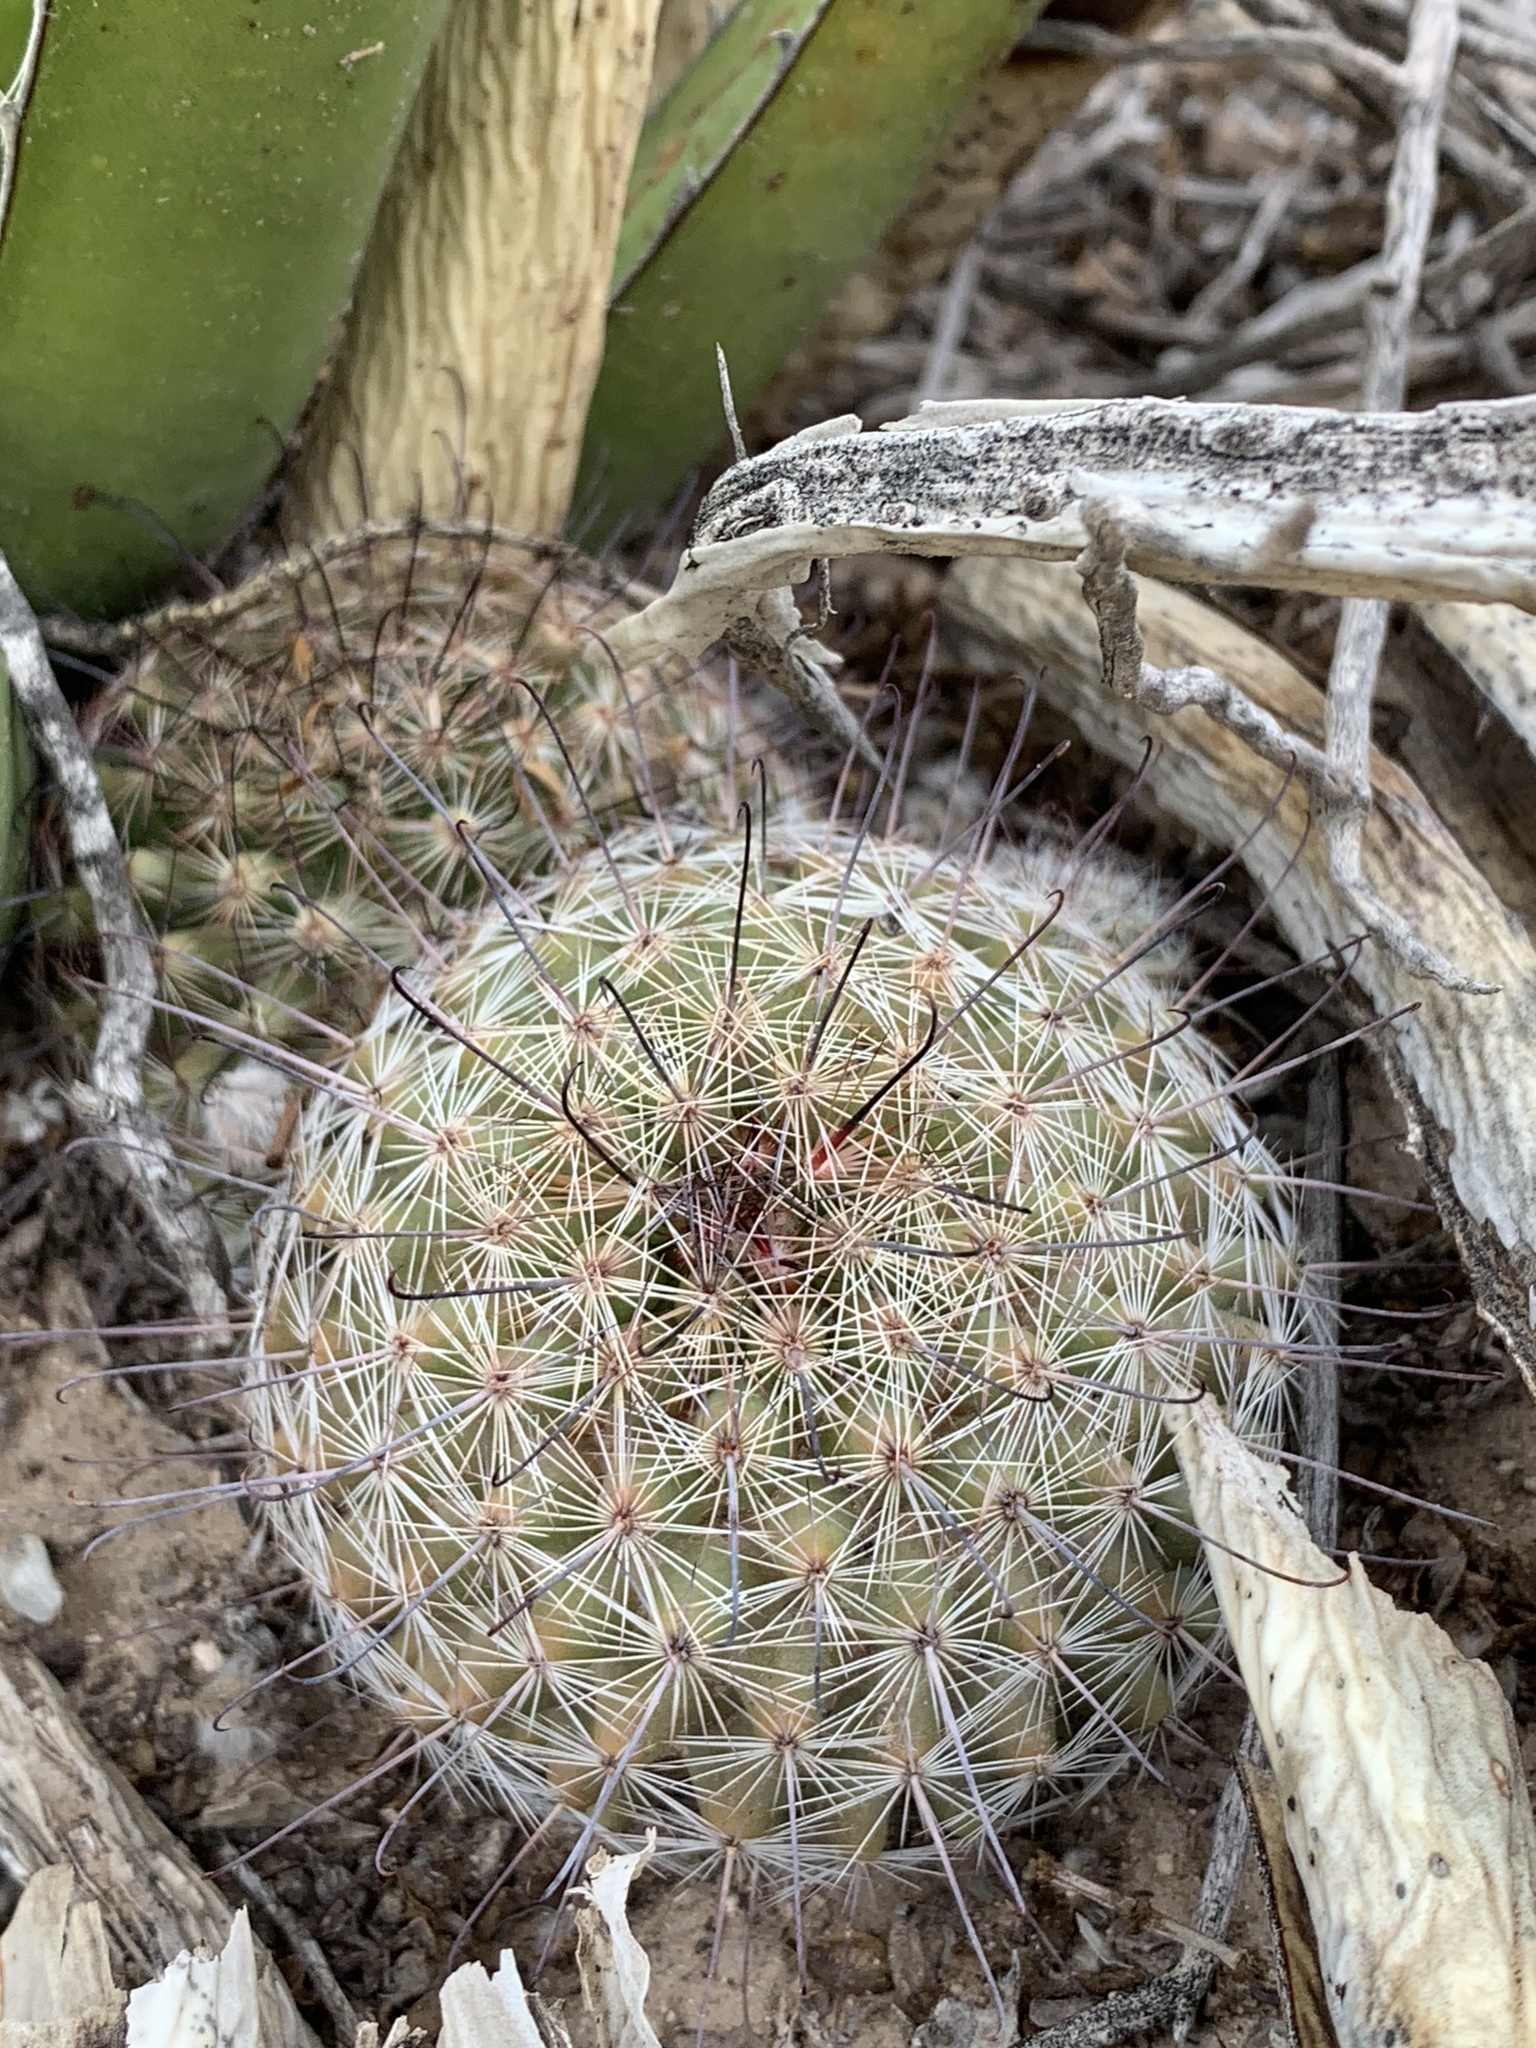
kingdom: Plantae
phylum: Tracheophyta
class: Magnoliopsida
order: Caryophyllales
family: Cactaceae
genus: Cochemiea
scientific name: Cochemiea grahamii
